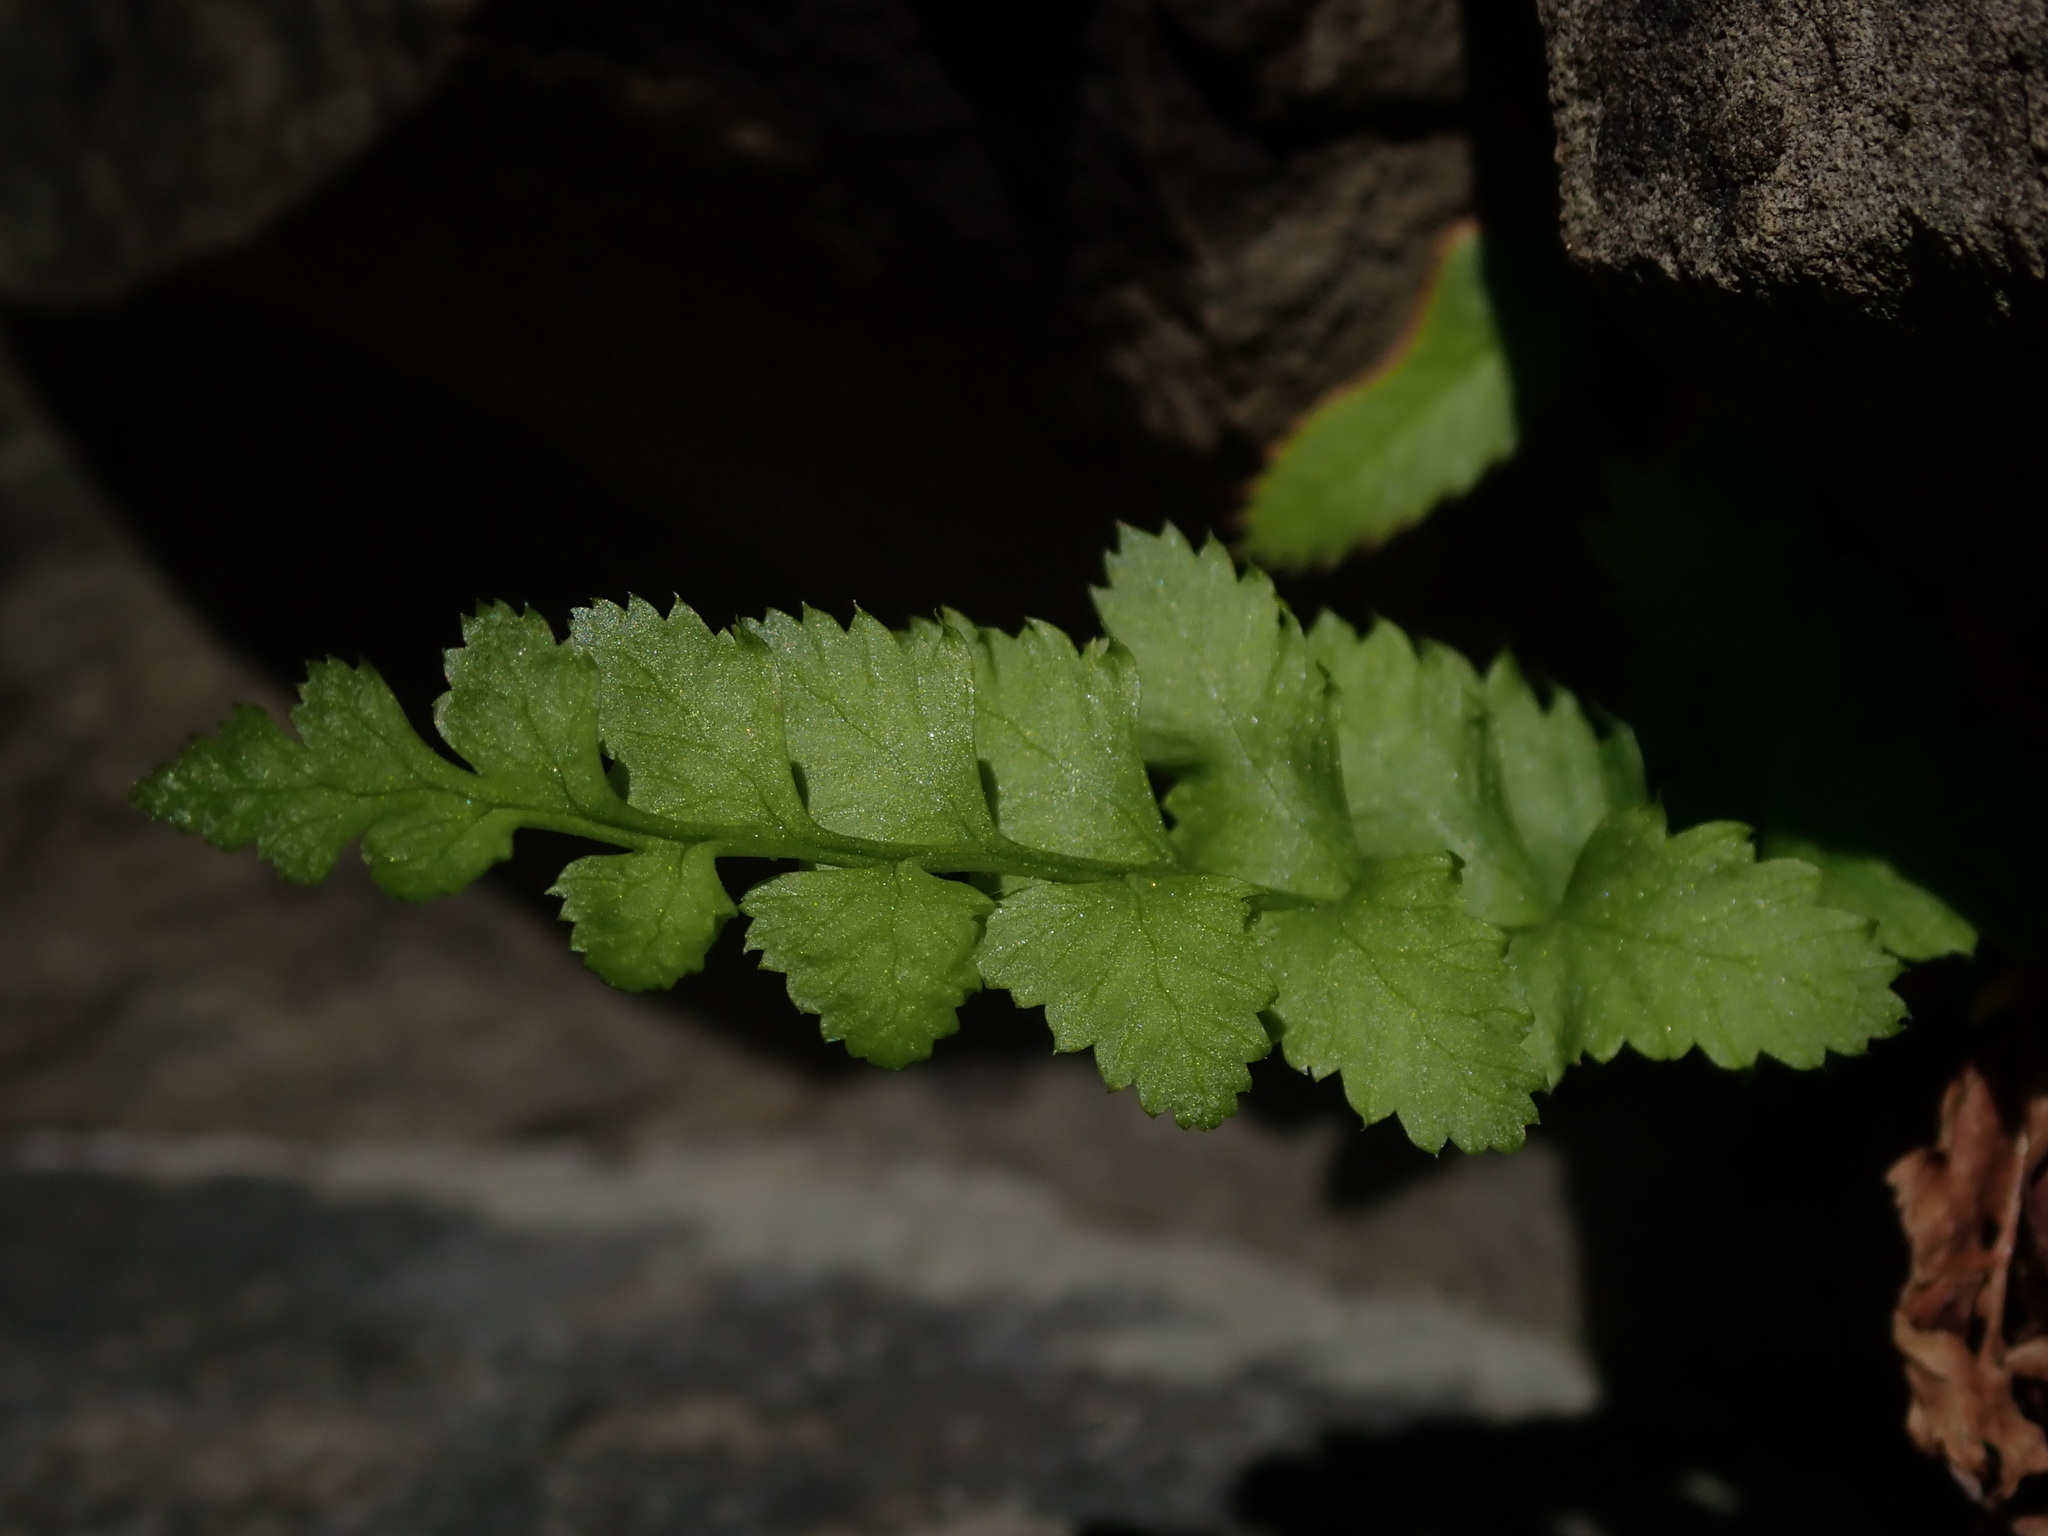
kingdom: Plantae
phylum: Tracheophyta
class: Polypodiopsida
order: Polypodiales
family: Dryopteridaceae
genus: Polystichum
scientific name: Polystichum munitum
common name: Western sword-fern
